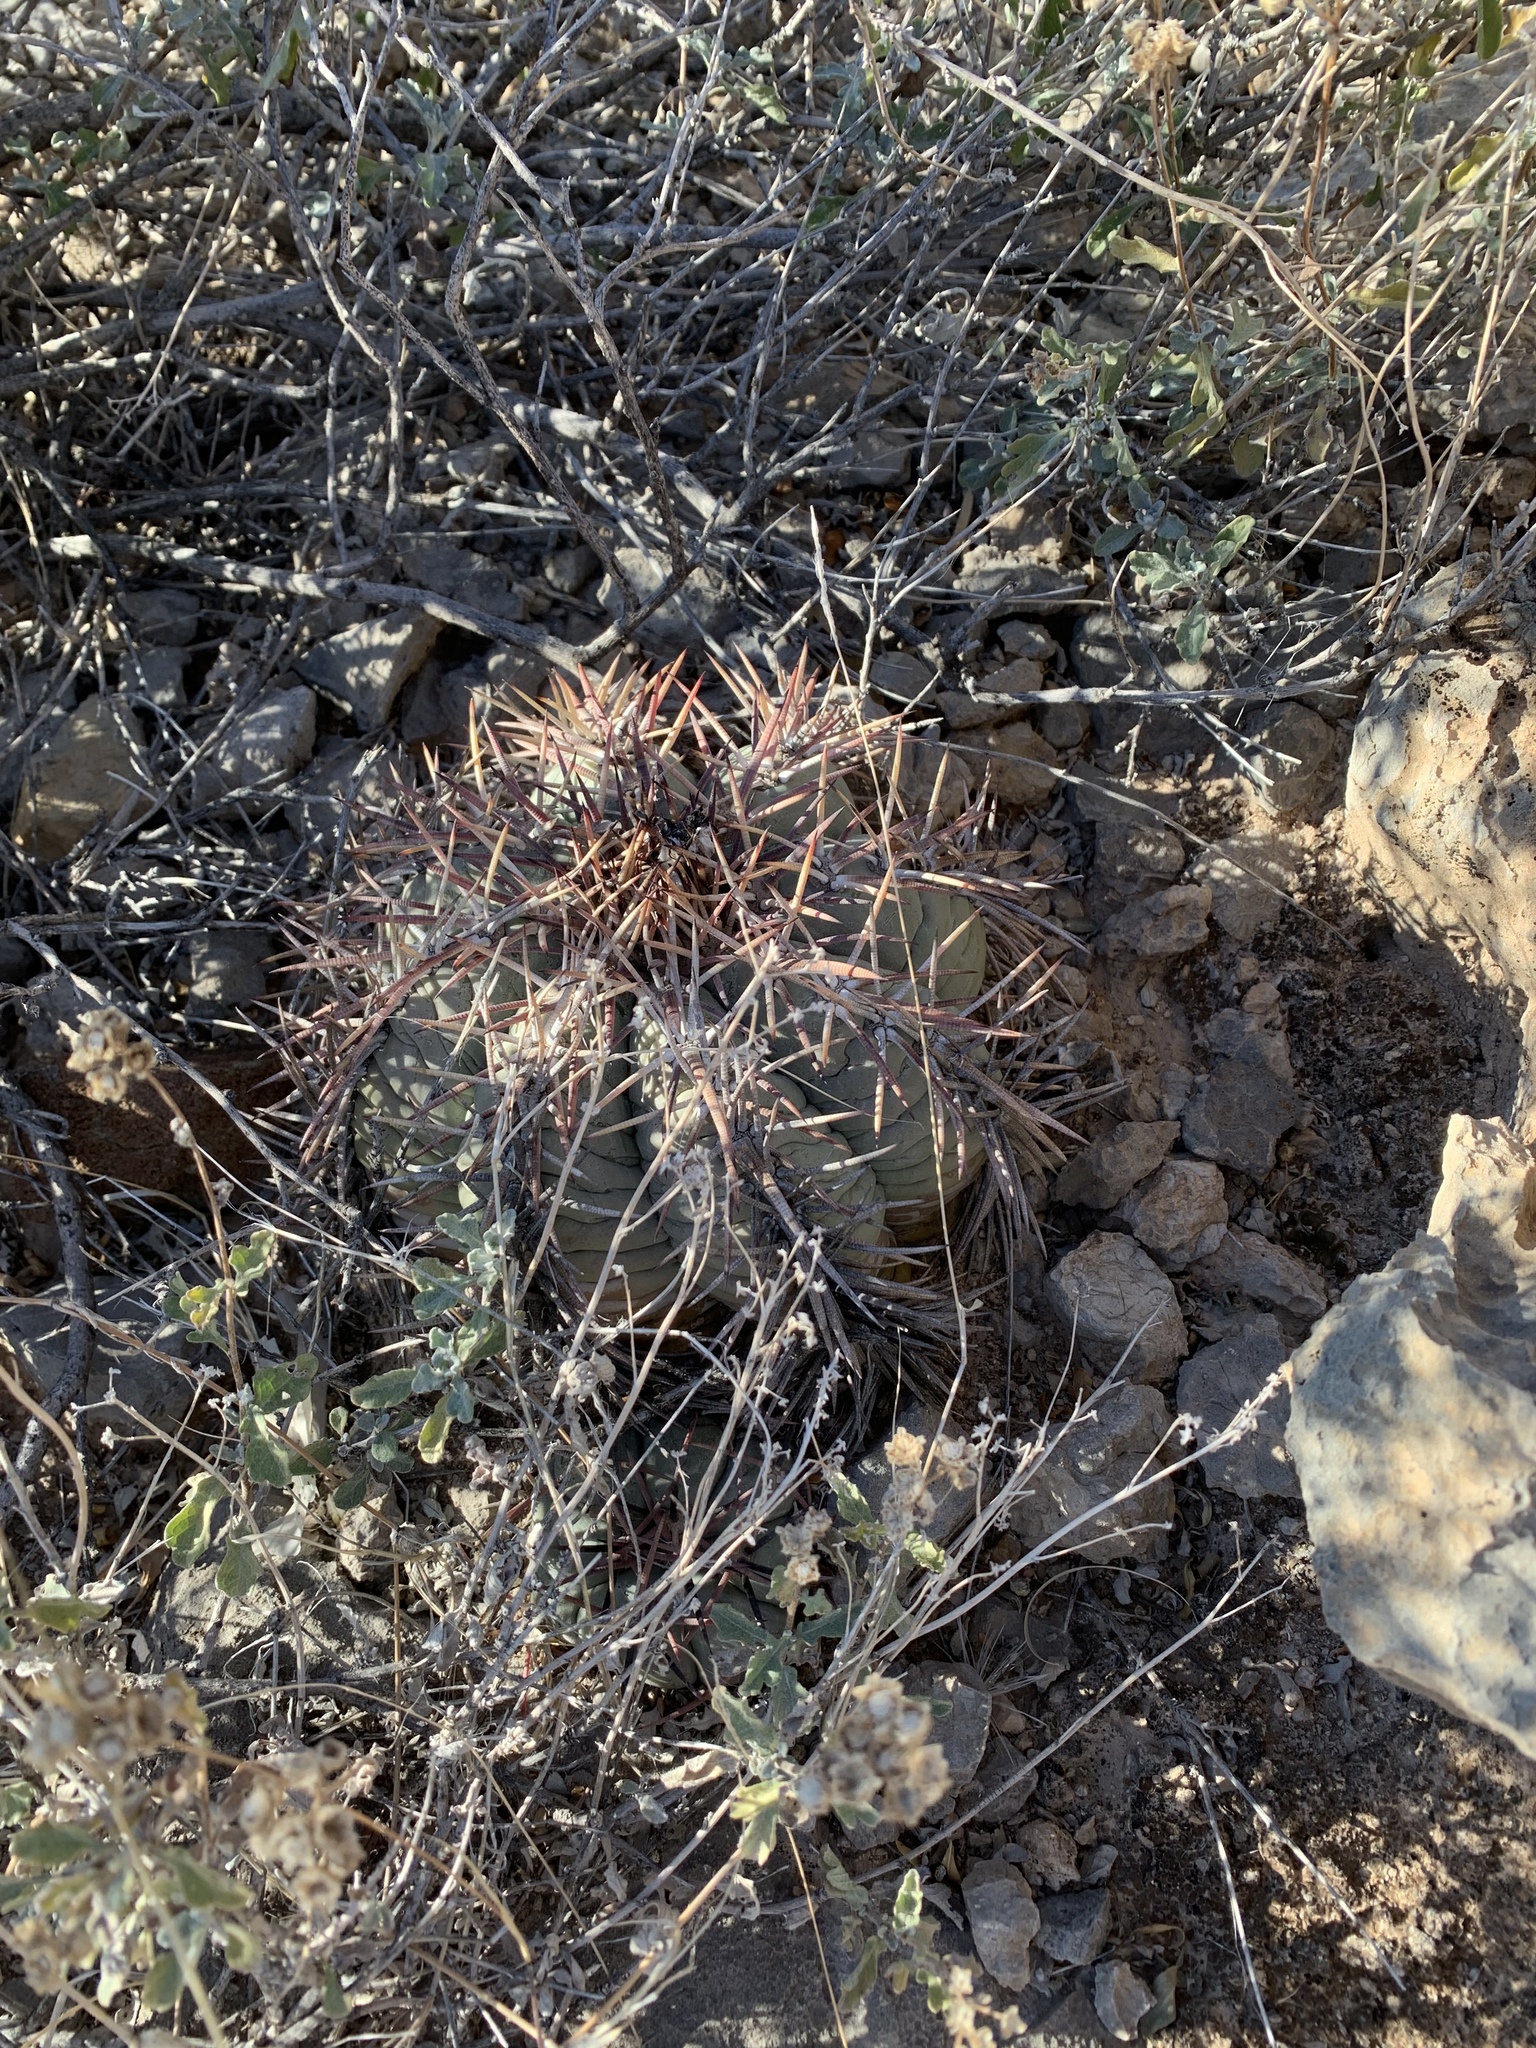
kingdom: Plantae
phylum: Tracheophyta
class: Magnoliopsida
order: Caryophyllales
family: Cactaceae
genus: Echinocactus
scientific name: Echinocactus horizonthalonius
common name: Devilshead
